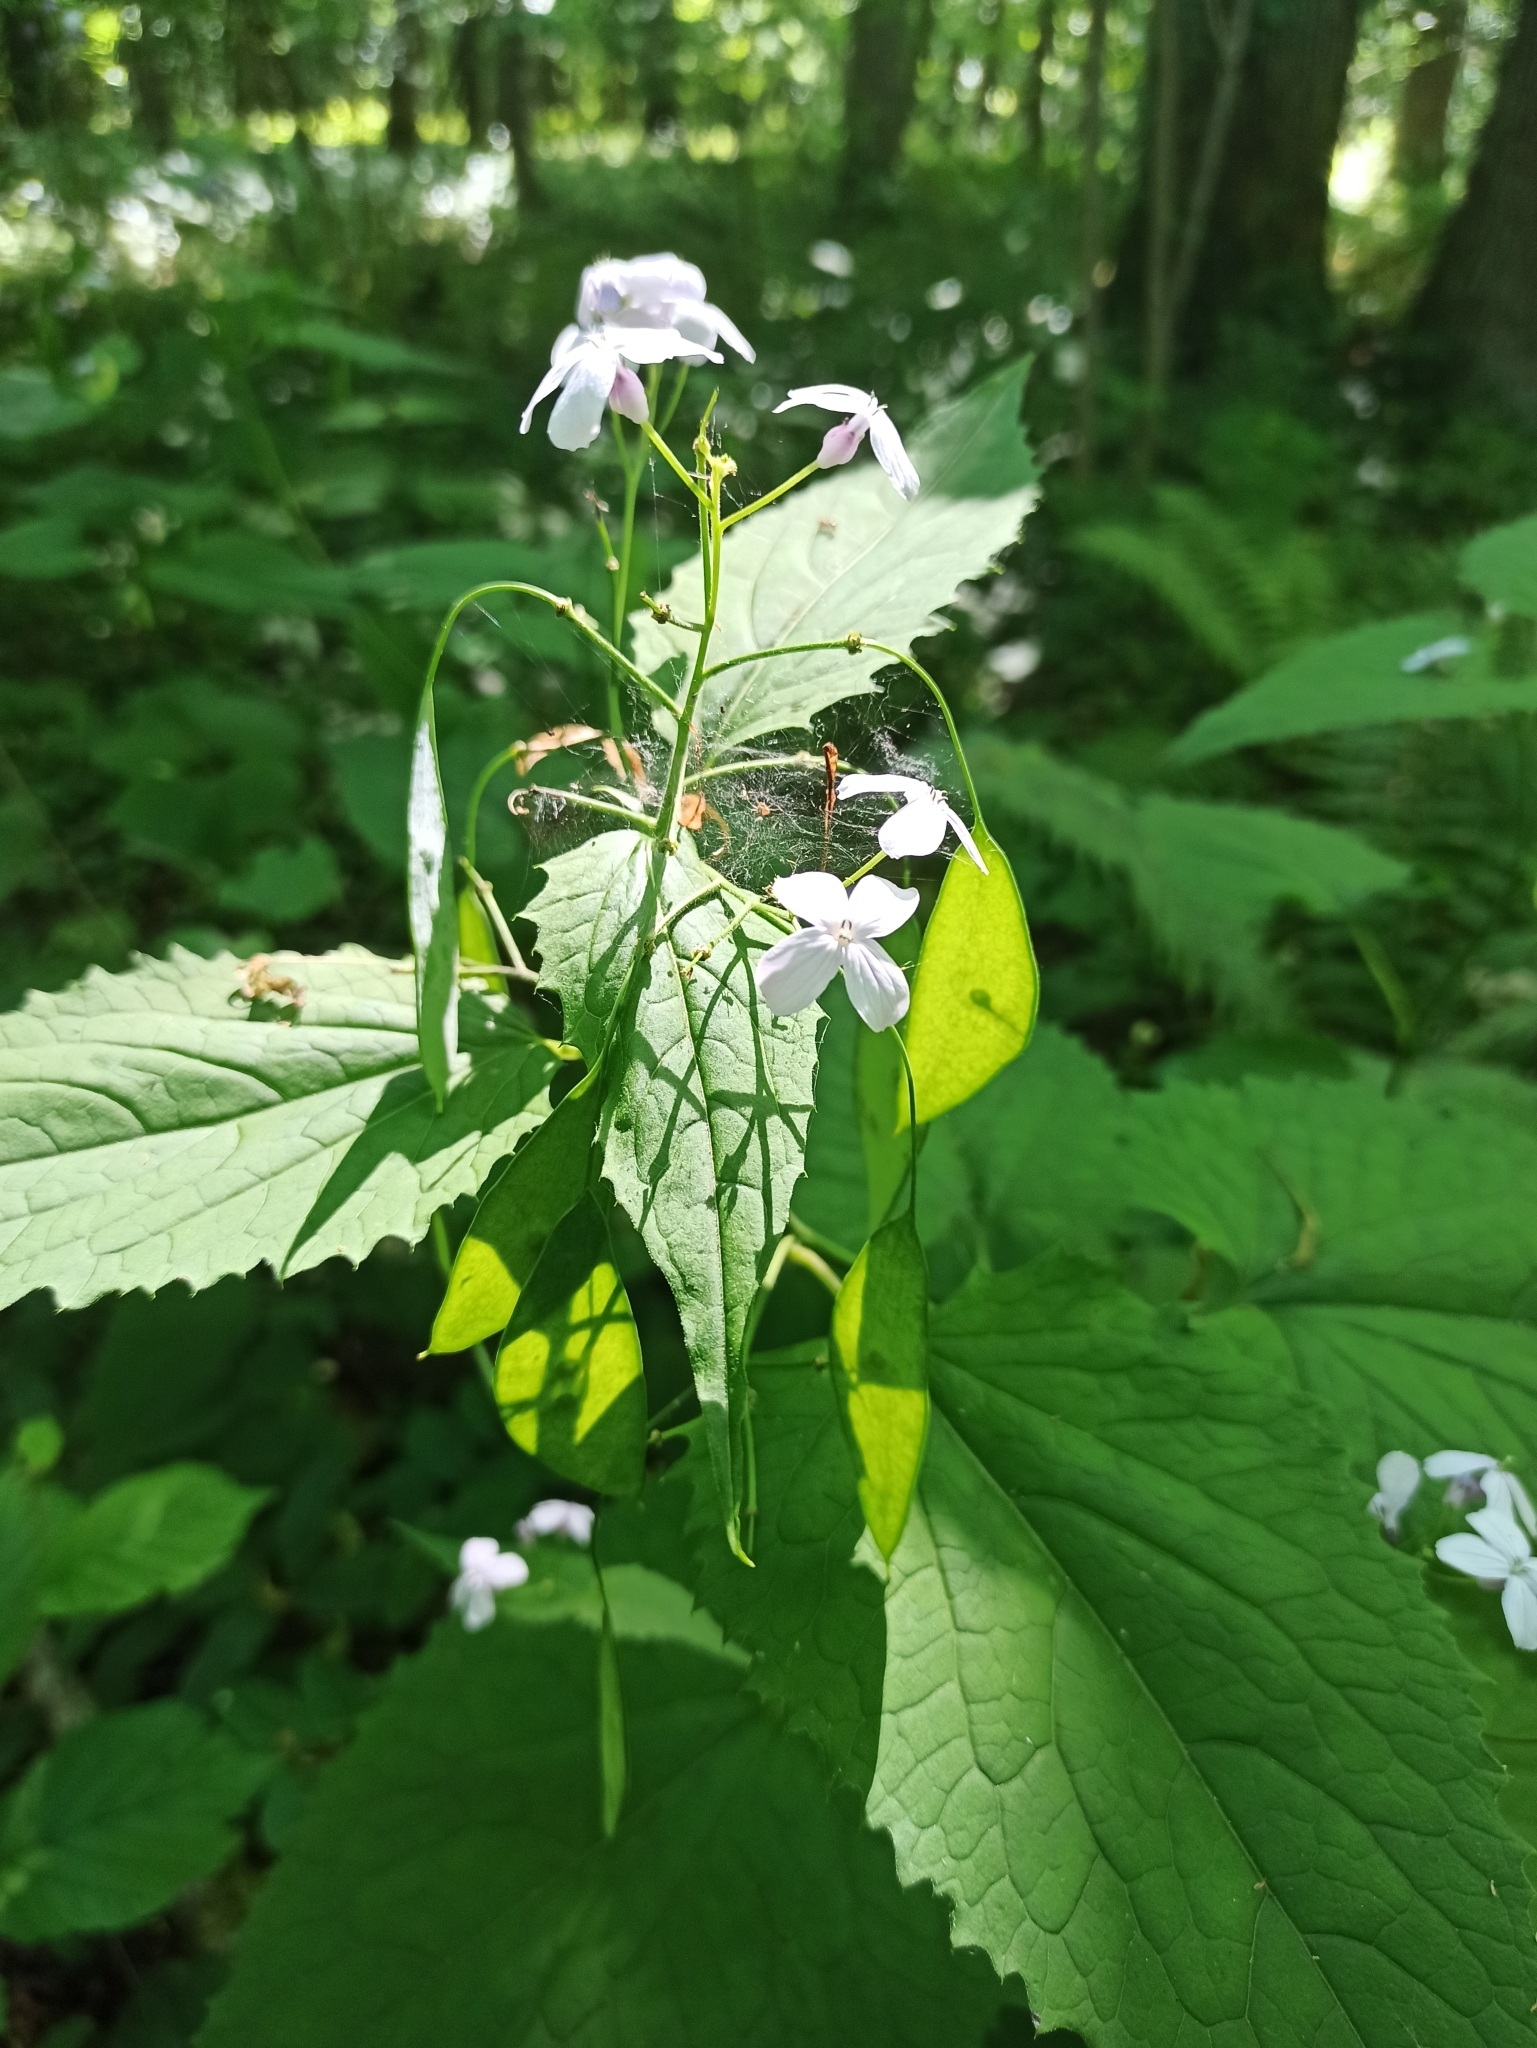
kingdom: Plantae
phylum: Tracheophyta
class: Magnoliopsida
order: Brassicales
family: Brassicaceae
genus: Lunaria
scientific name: Lunaria rediviva
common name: Perennial honesty
